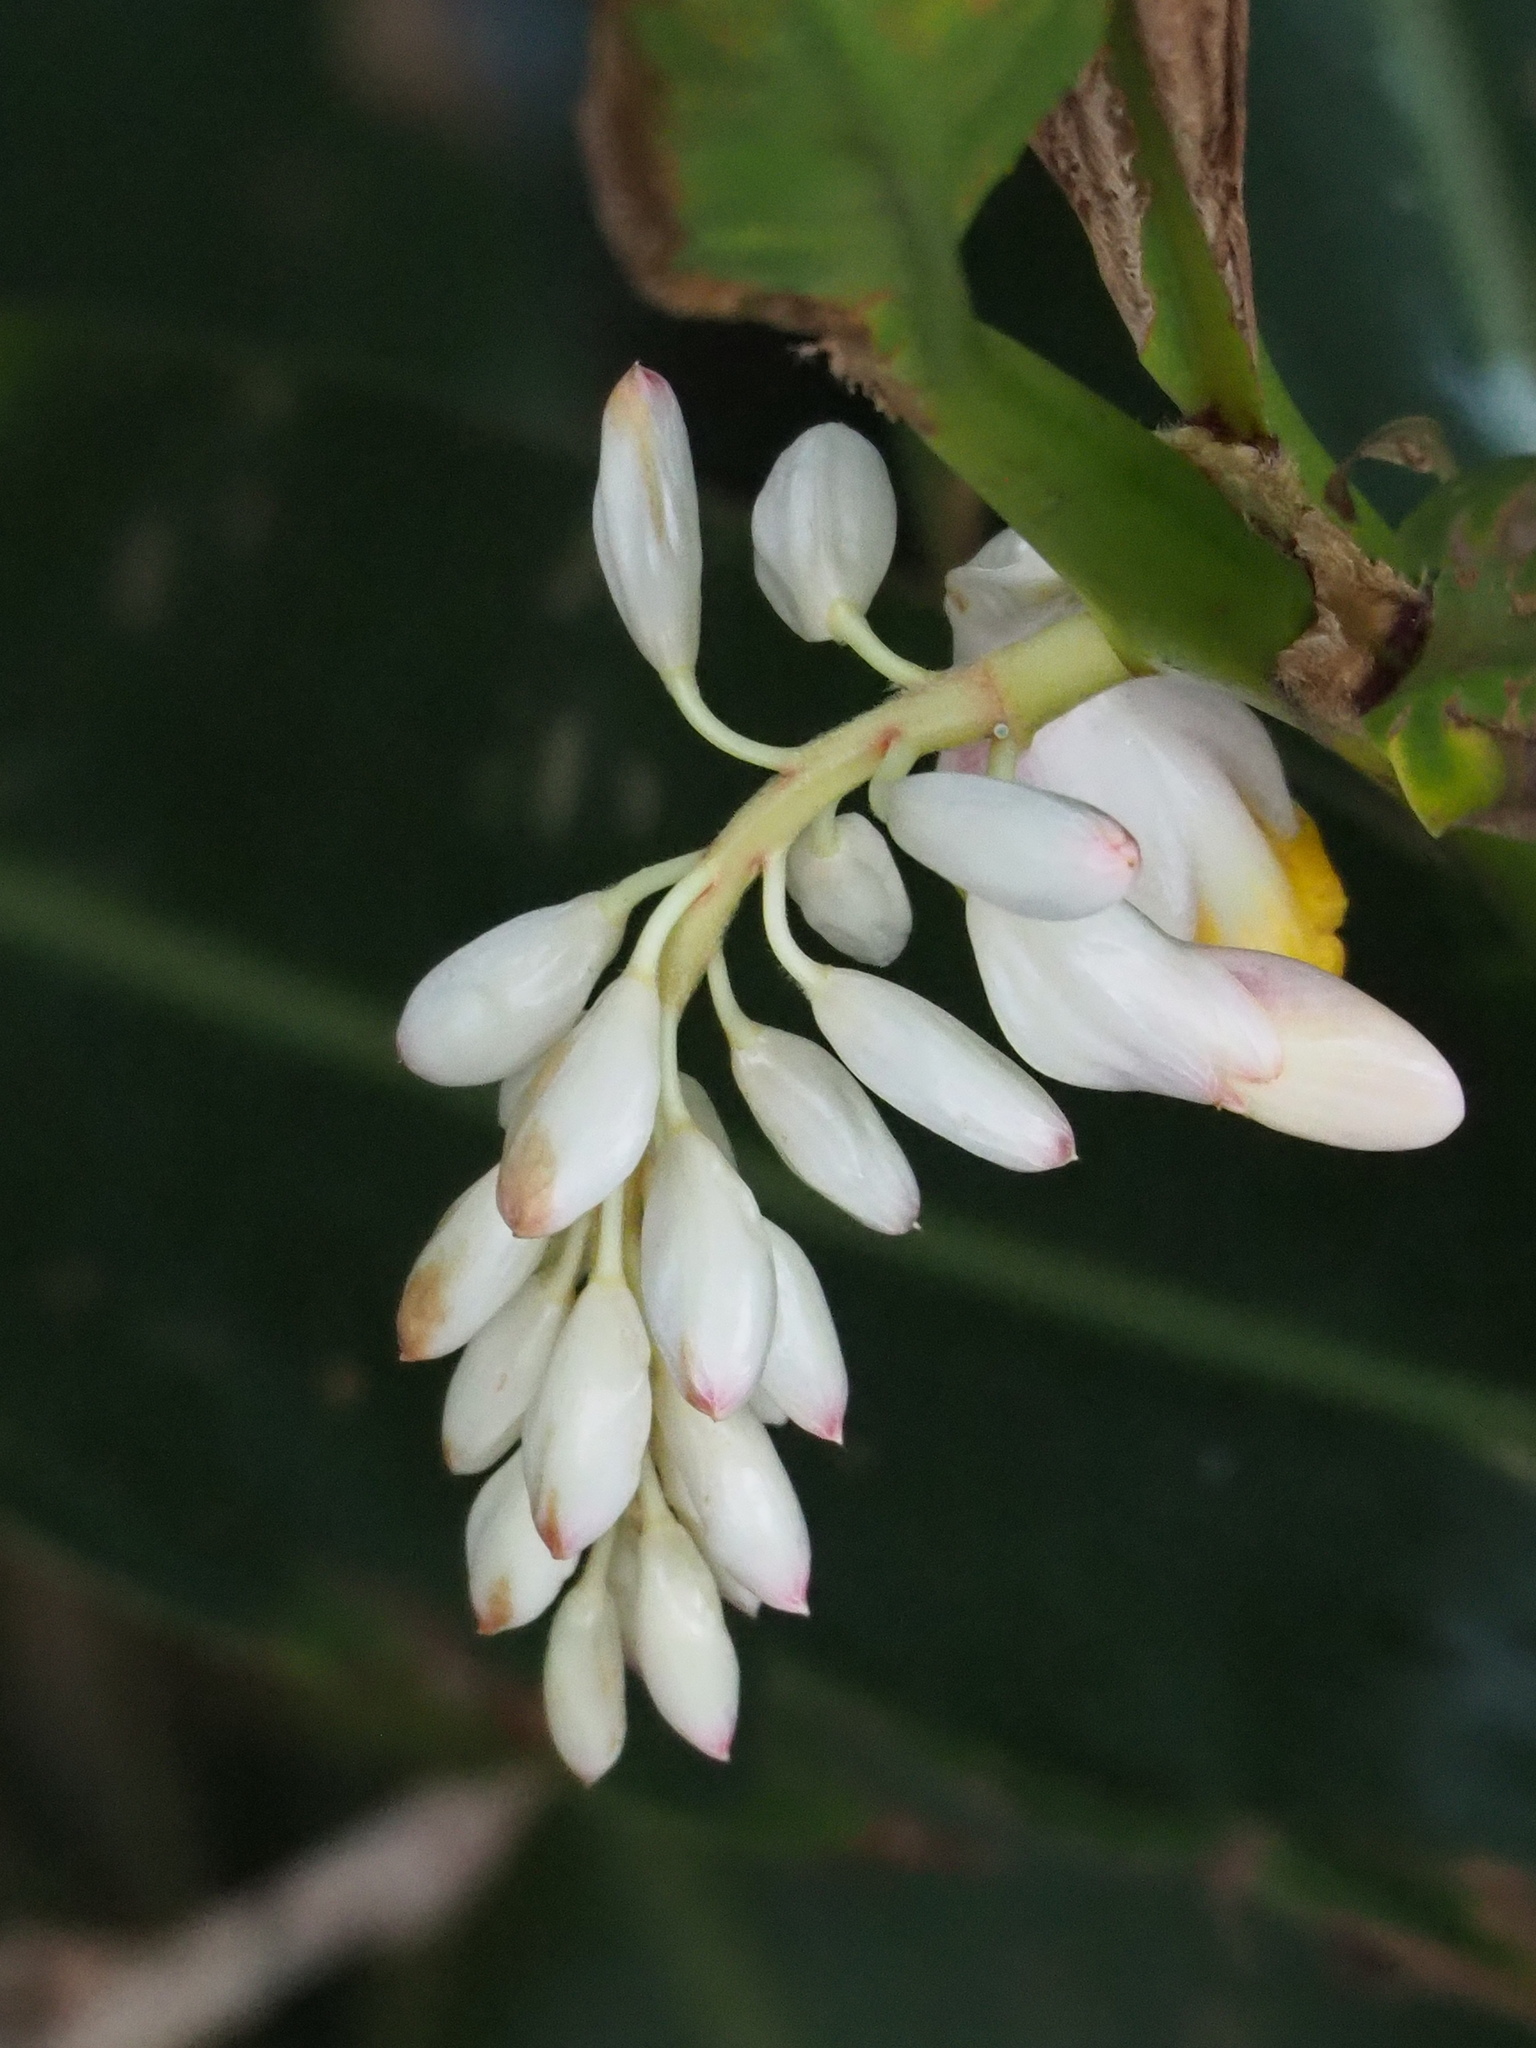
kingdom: Plantae
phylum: Tracheophyta
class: Liliopsida
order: Zingiberales
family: Zingiberaceae
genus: Alpinia
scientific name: Alpinia zerumbet
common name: Shellplant
